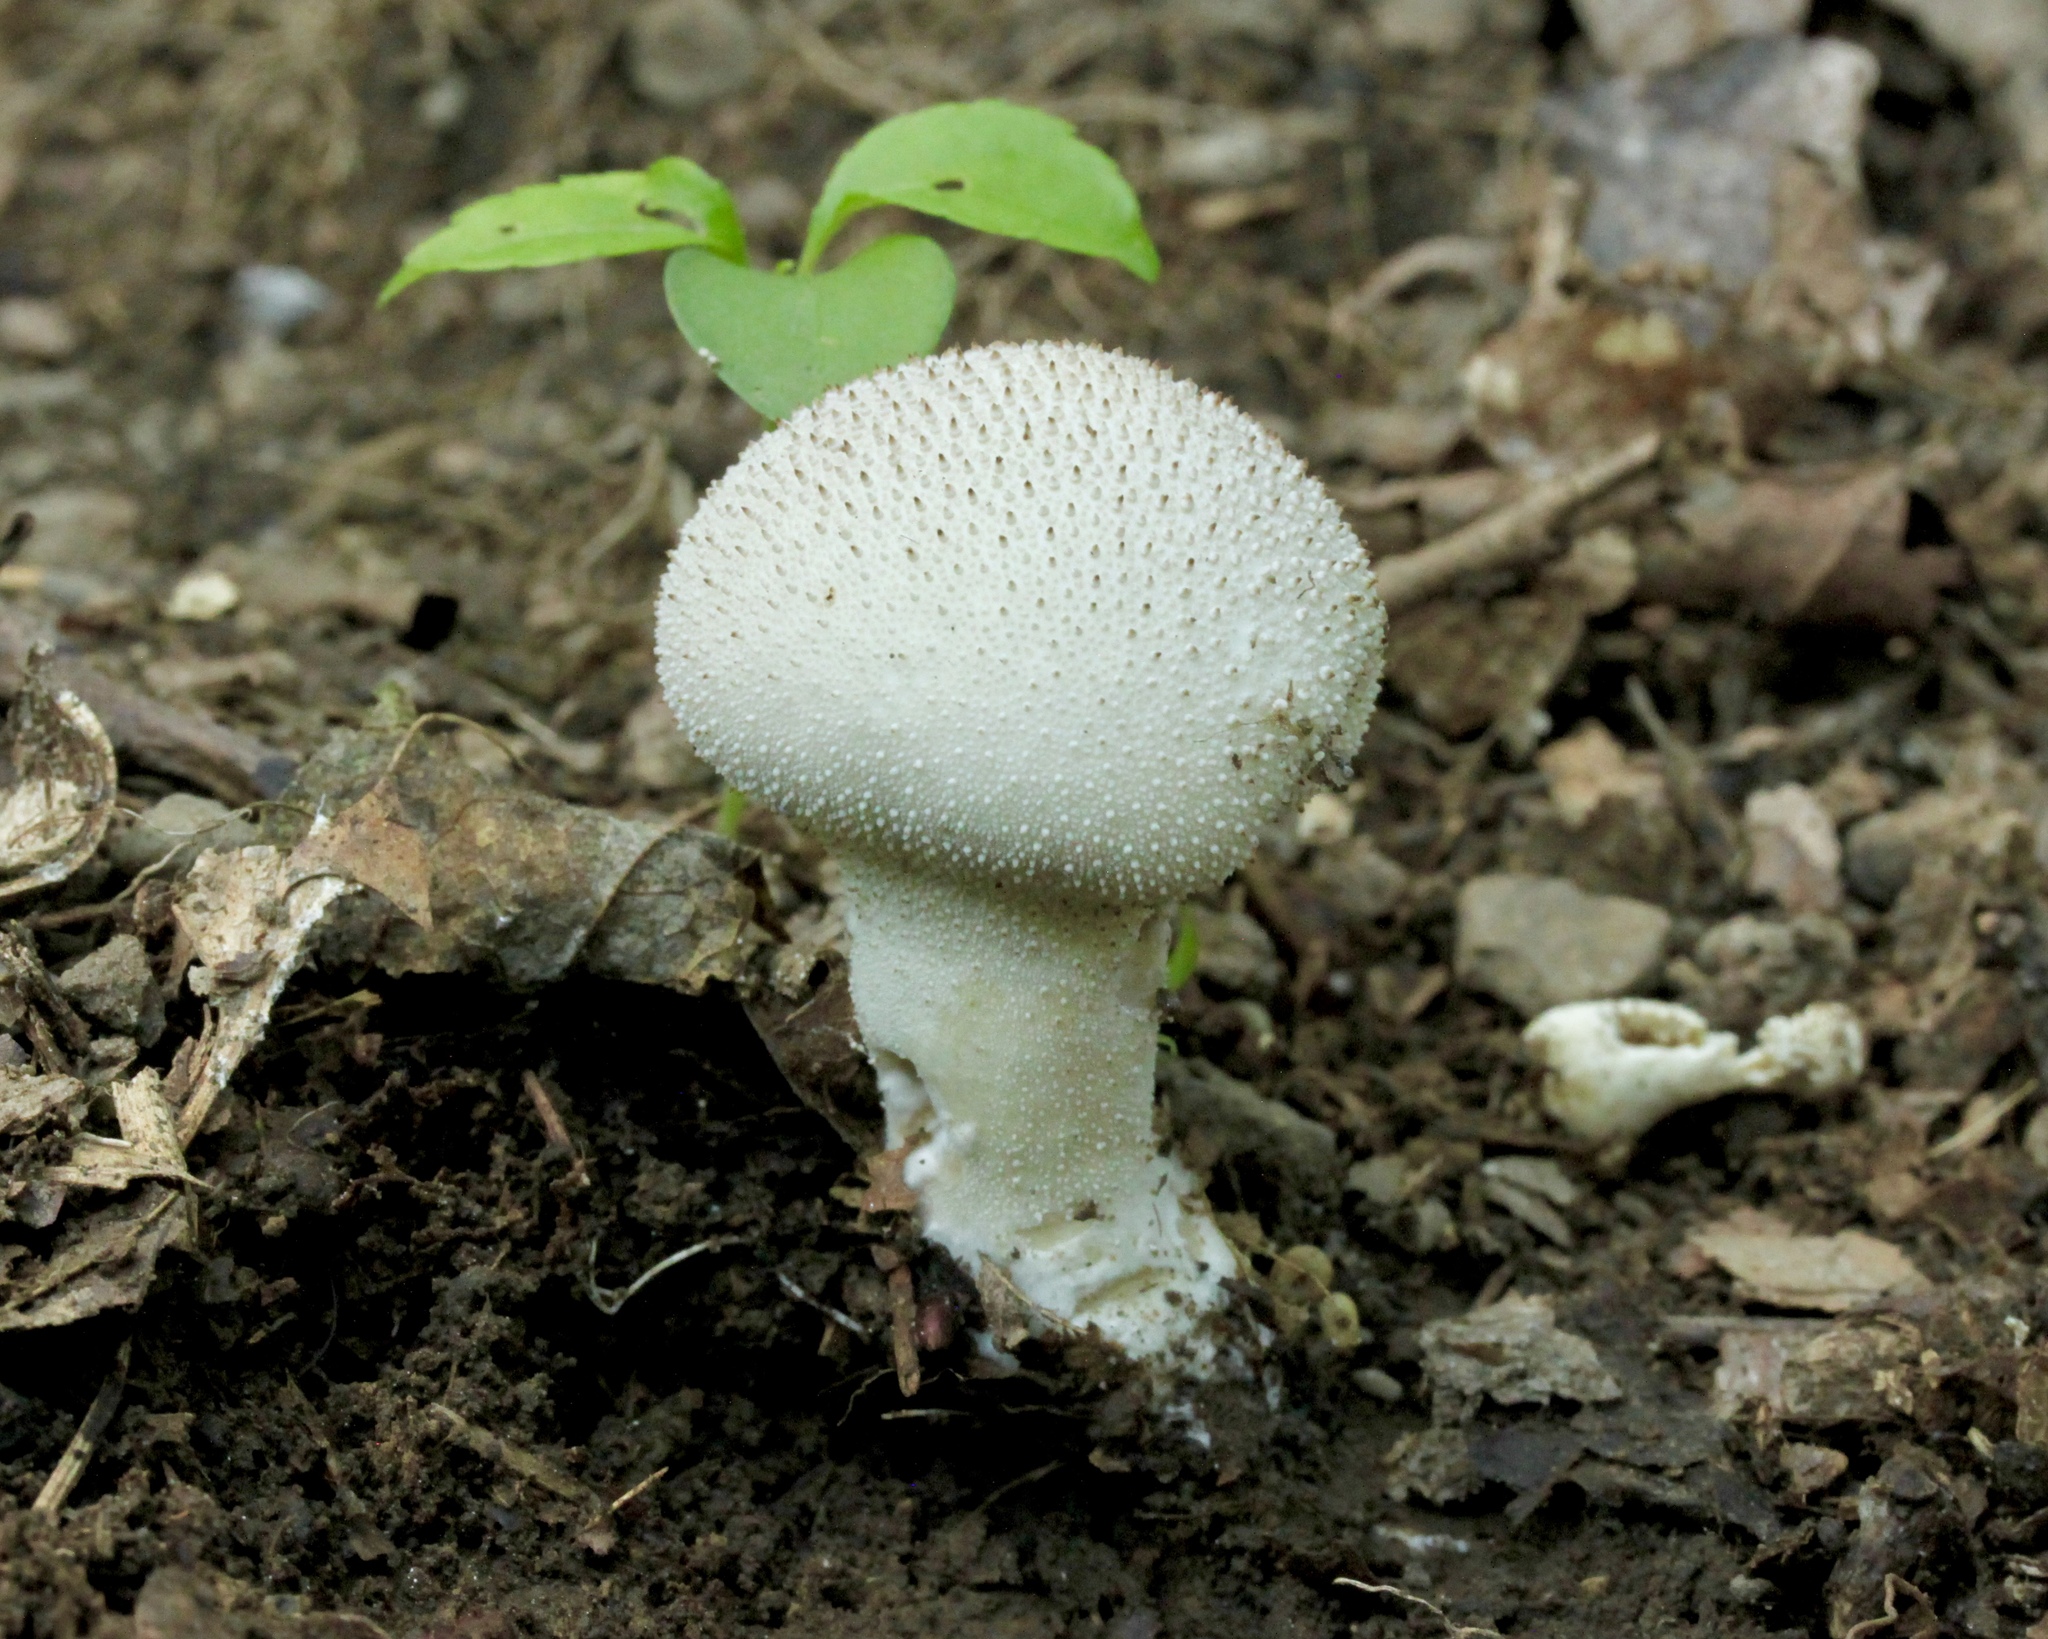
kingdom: Fungi
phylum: Basidiomycota
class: Agaricomycetes
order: Agaricales
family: Lycoperdaceae
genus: Lycoperdon
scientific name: Lycoperdon perlatum
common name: Common puffball
